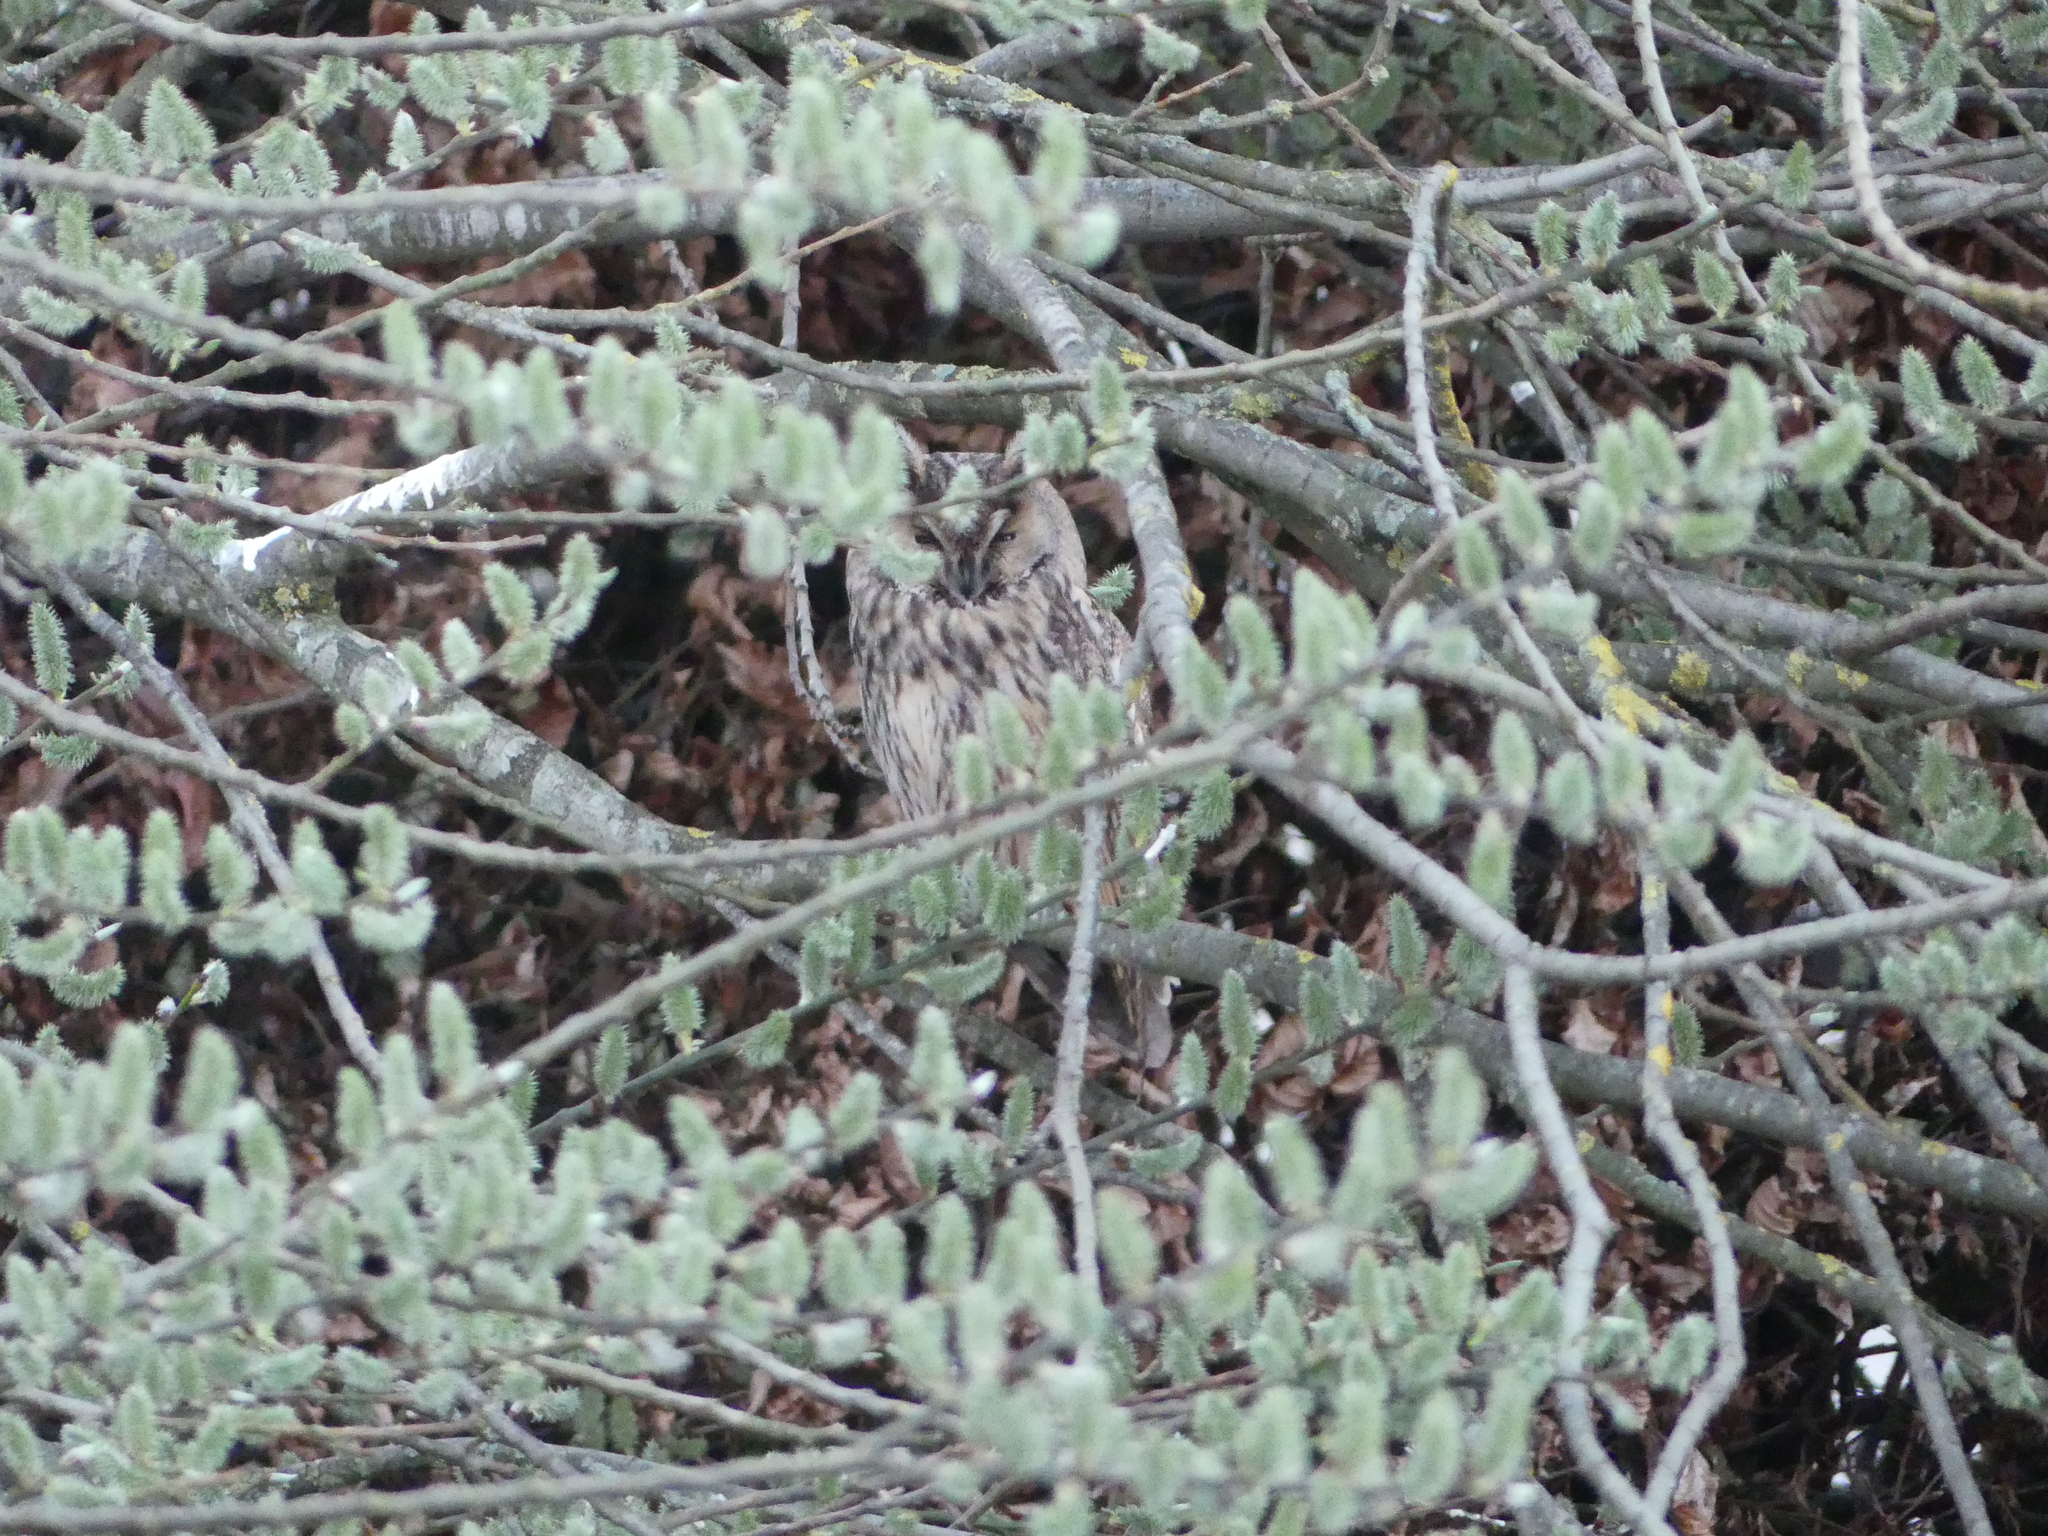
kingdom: Animalia
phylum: Chordata
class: Aves
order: Strigiformes
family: Strigidae
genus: Asio
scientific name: Asio otus
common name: Long-eared owl
